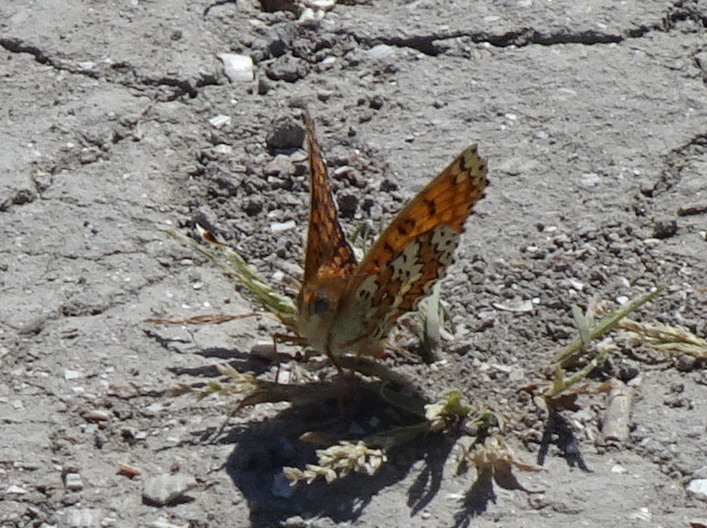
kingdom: Animalia
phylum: Arthropoda
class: Insecta
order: Lepidoptera
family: Nymphalidae
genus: Melitaea
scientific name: Melitaea cinxia
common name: Glanville fritillary
